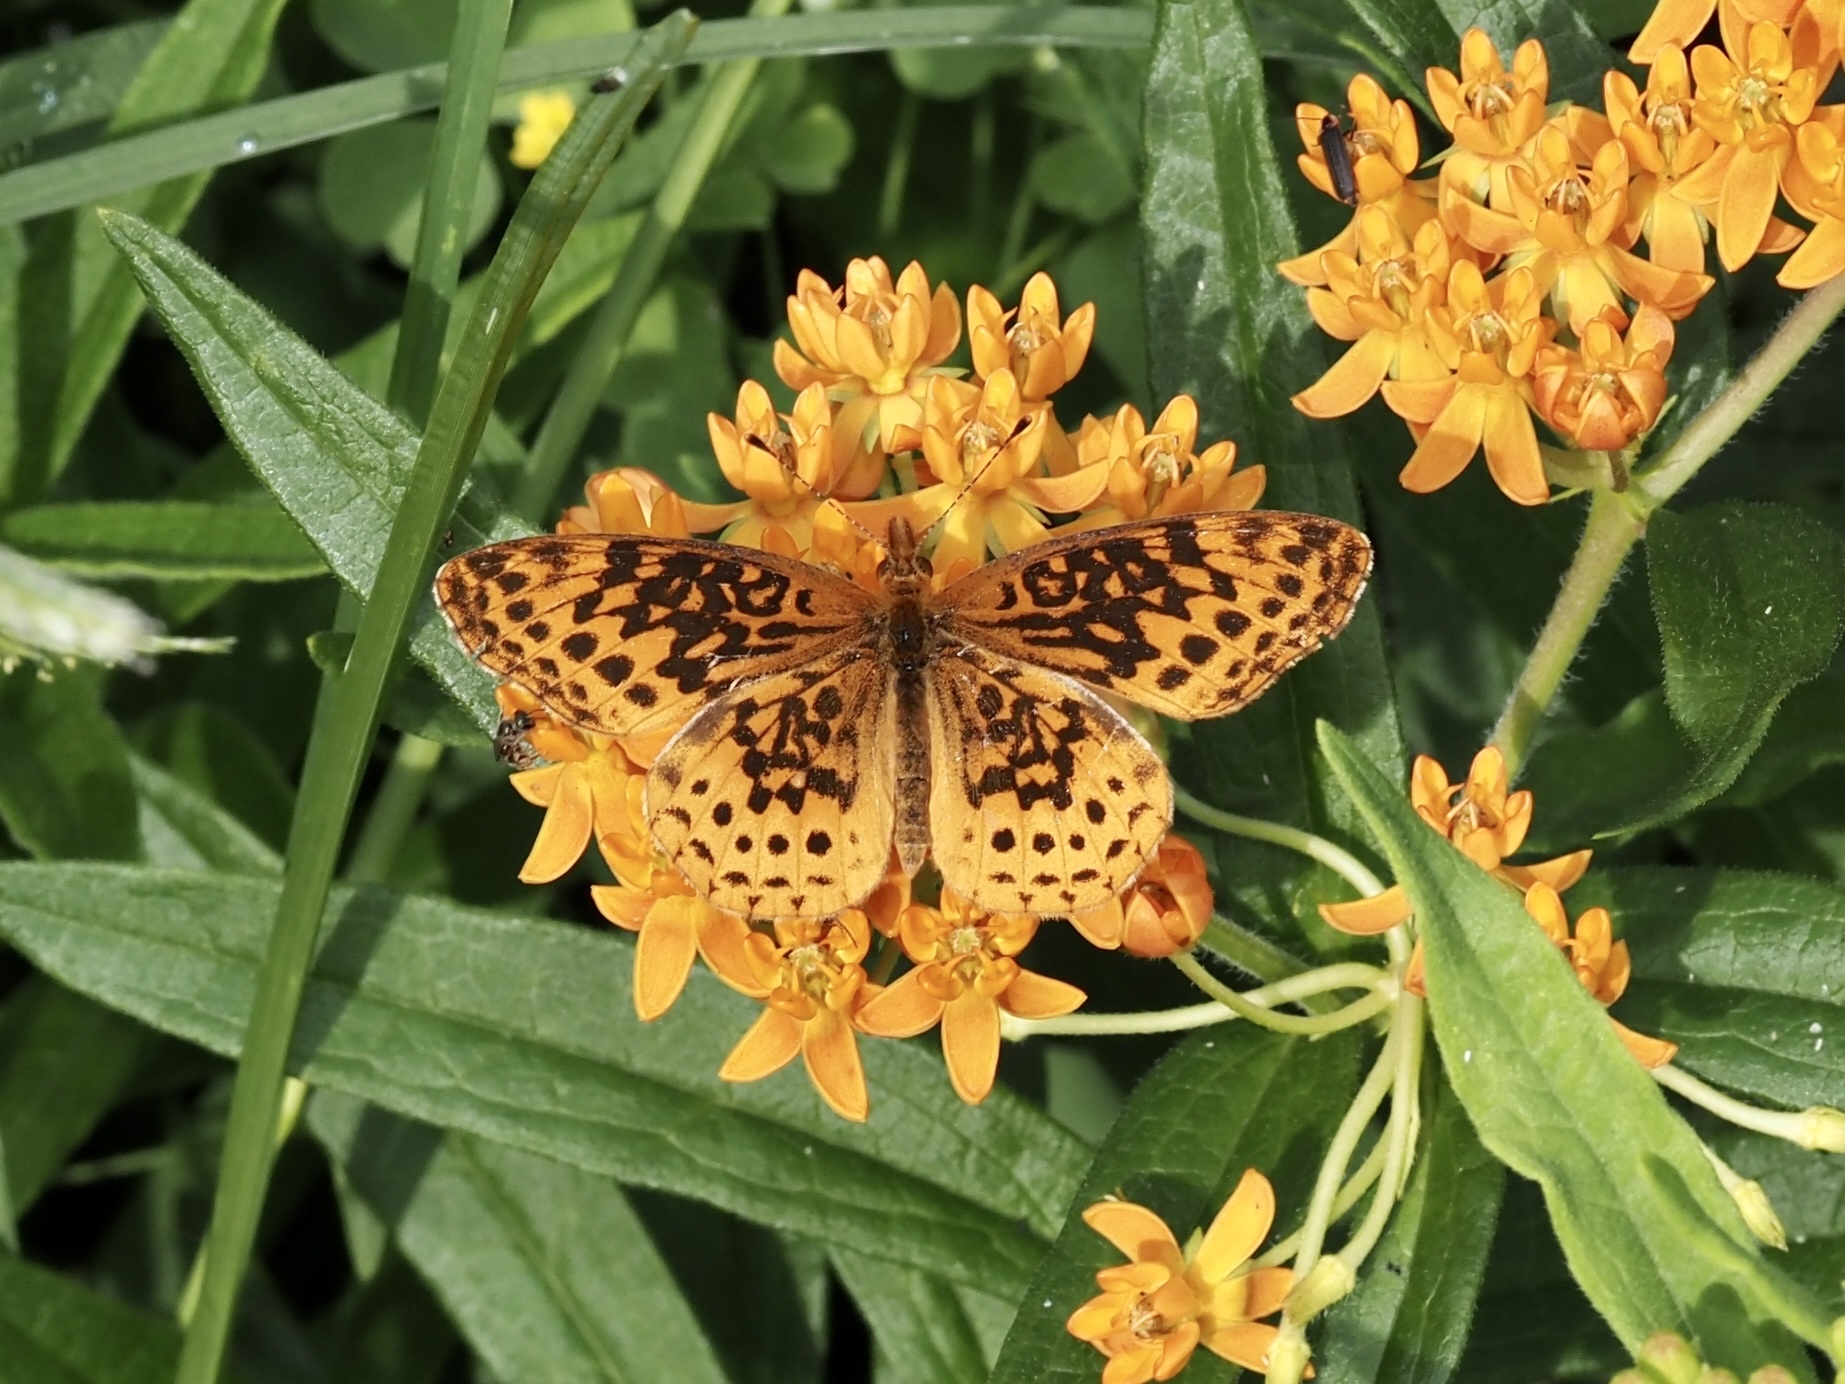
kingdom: Animalia
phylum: Arthropoda
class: Insecta
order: Lepidoptera
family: Nymphalidae
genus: Clossiana
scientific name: Clossiana toddi
